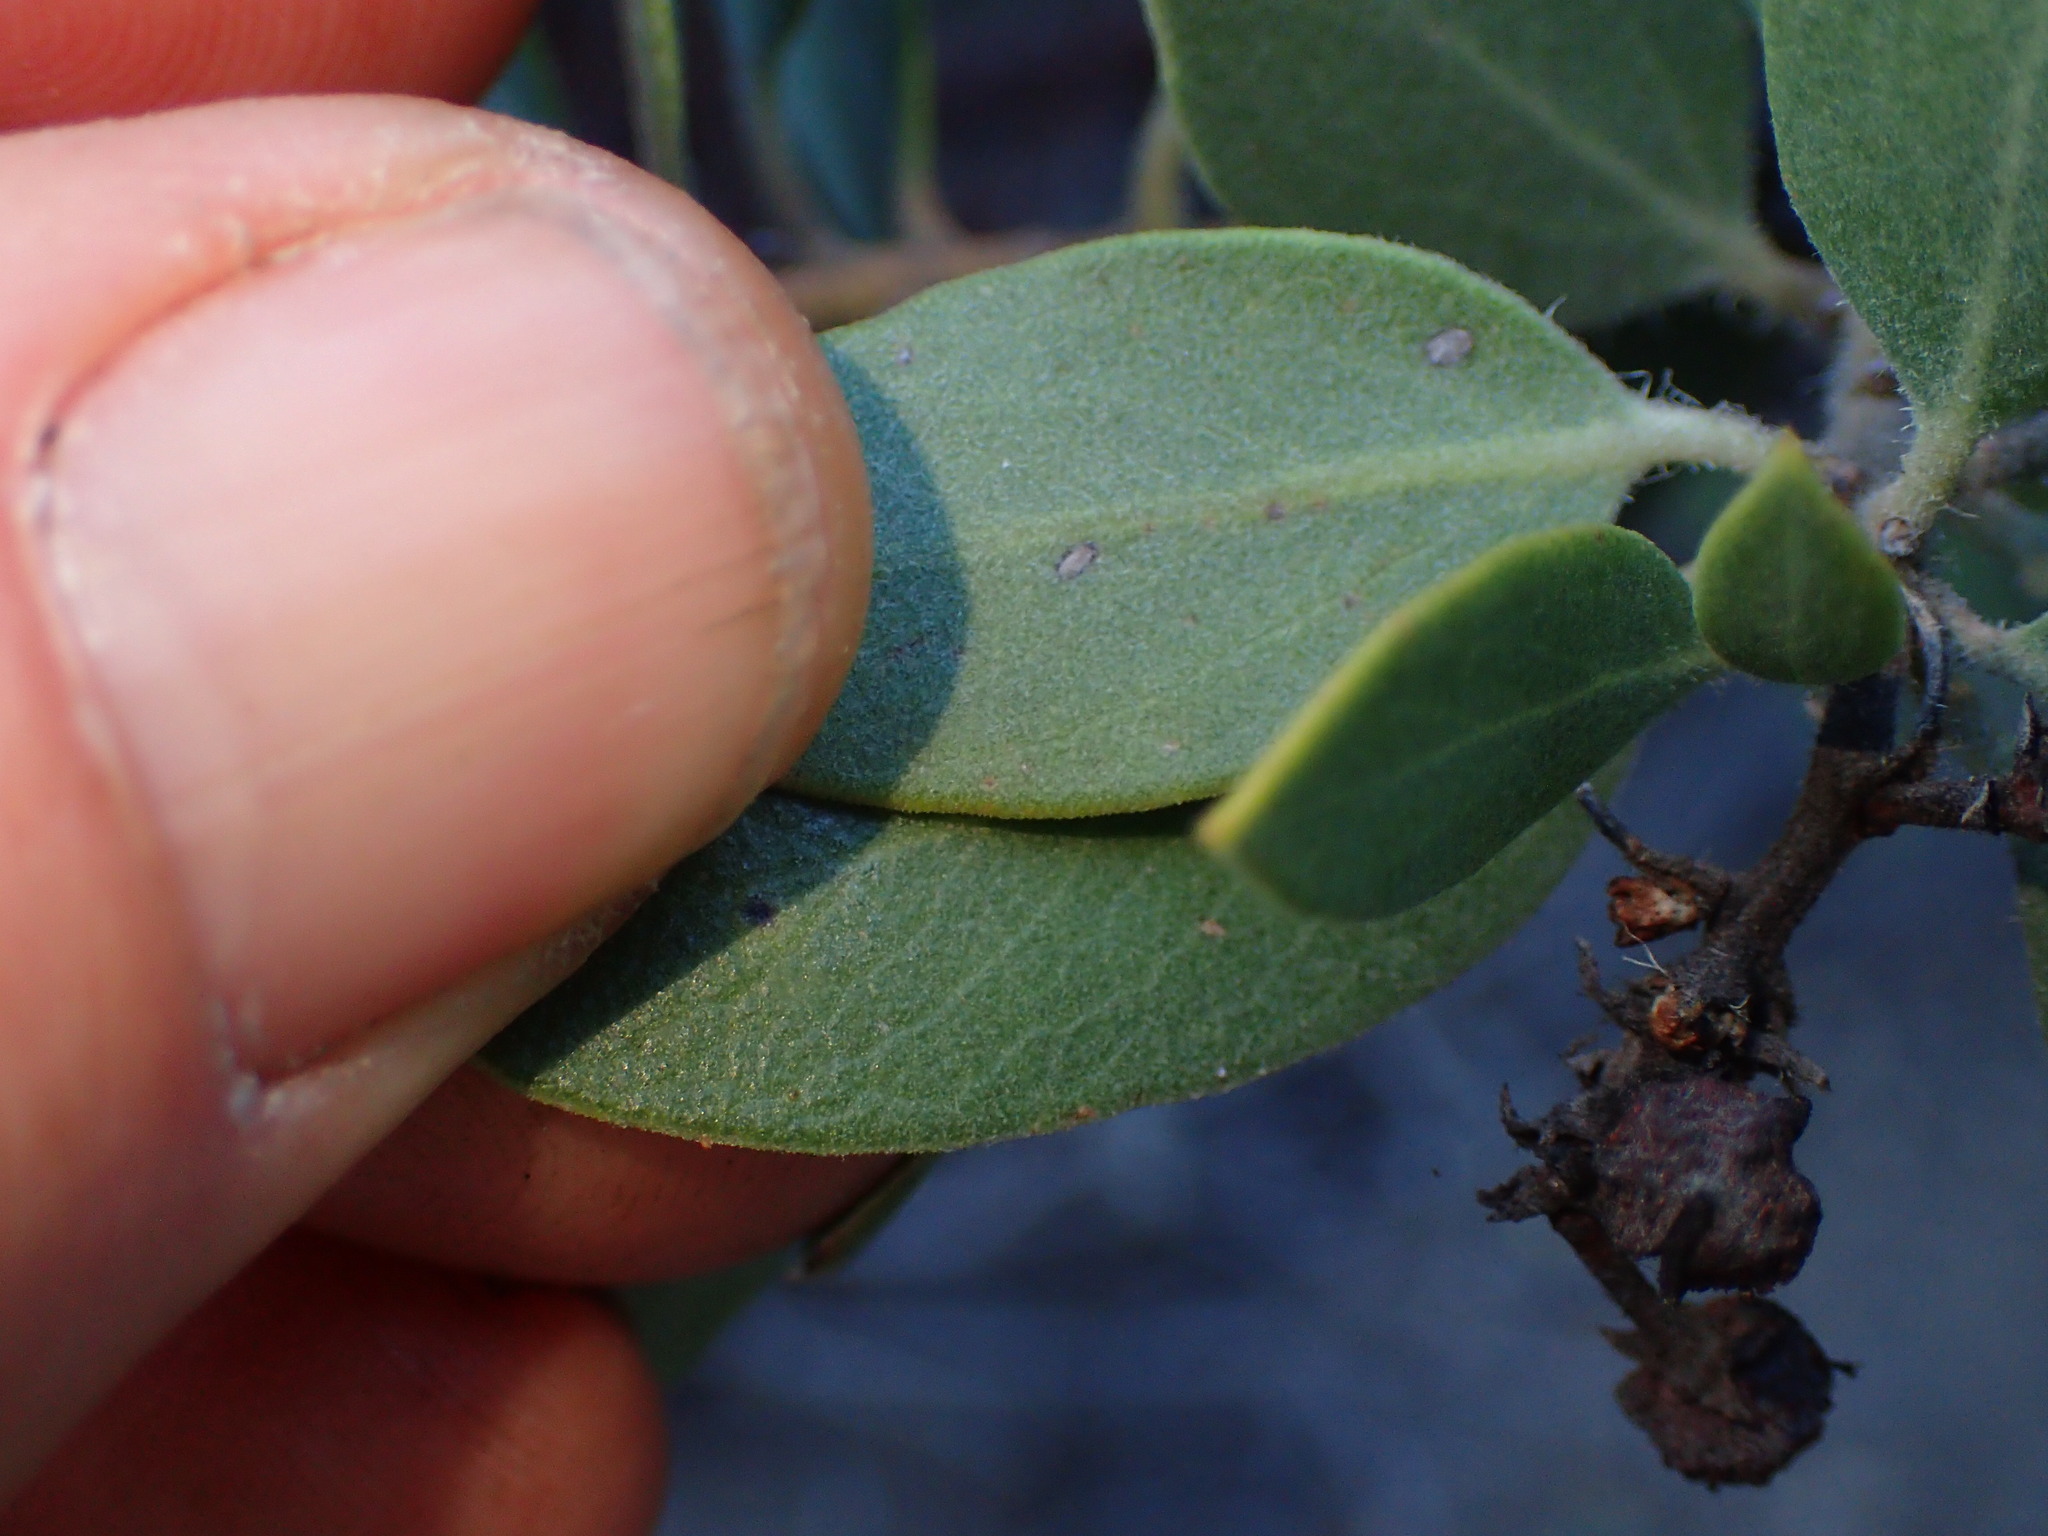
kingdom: Plantae
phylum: Tracheophyta
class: Magnoliopsida
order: Ericales
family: Ericaceae
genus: Arctostaphylos
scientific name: Arctostaphylos glandulosa
